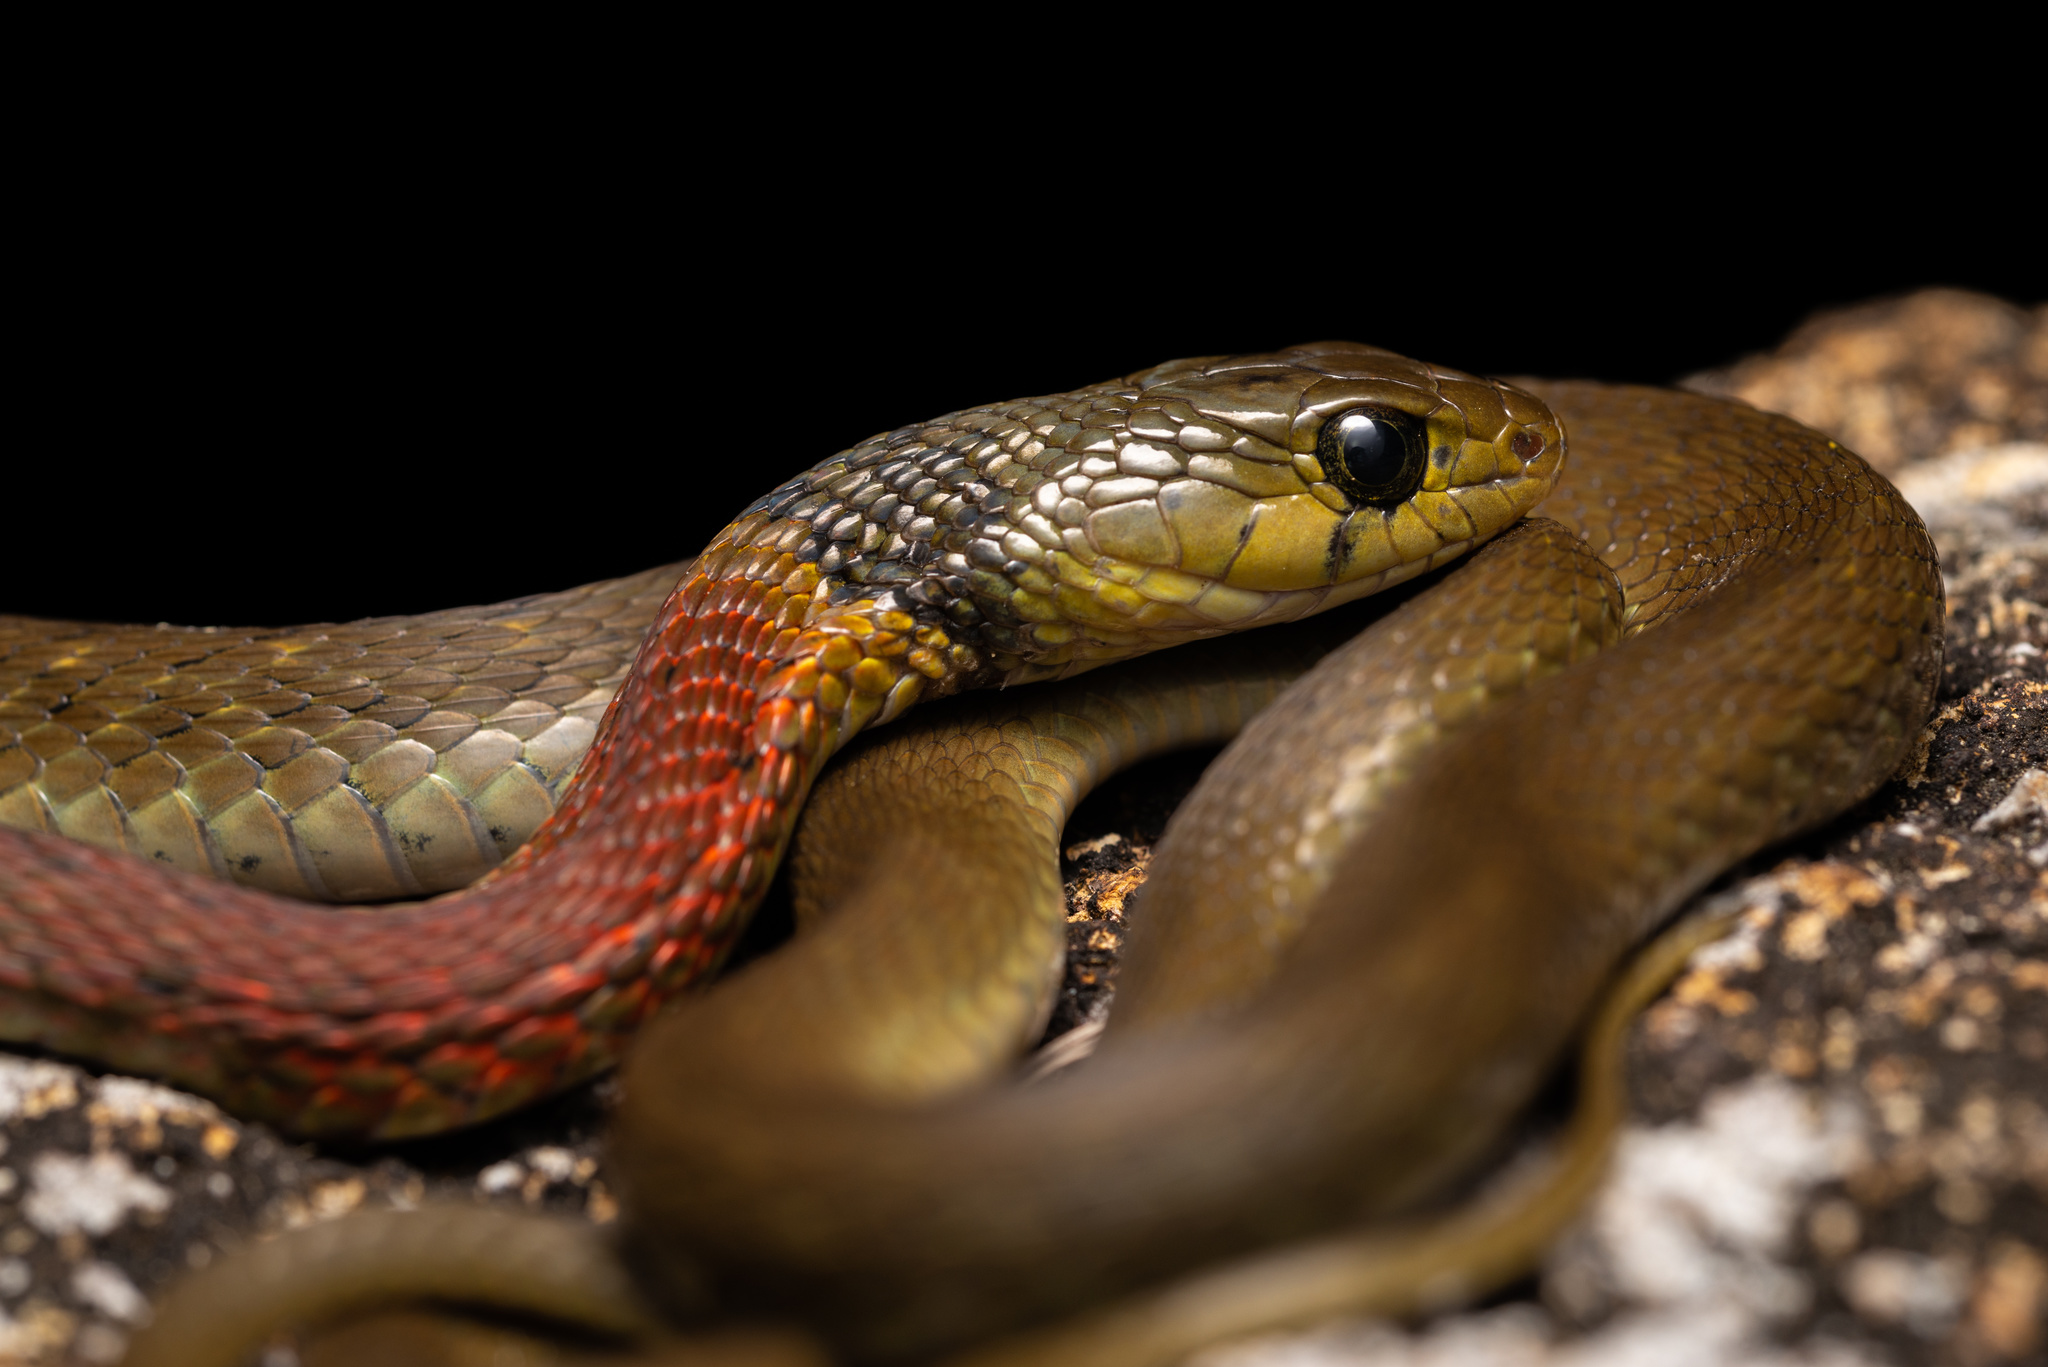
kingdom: Animalia
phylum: Chordata
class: Squamata
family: Colubridae
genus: Rhabdophis
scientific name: Rhabdophis helleri
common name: Heller’s red-necked keelback
